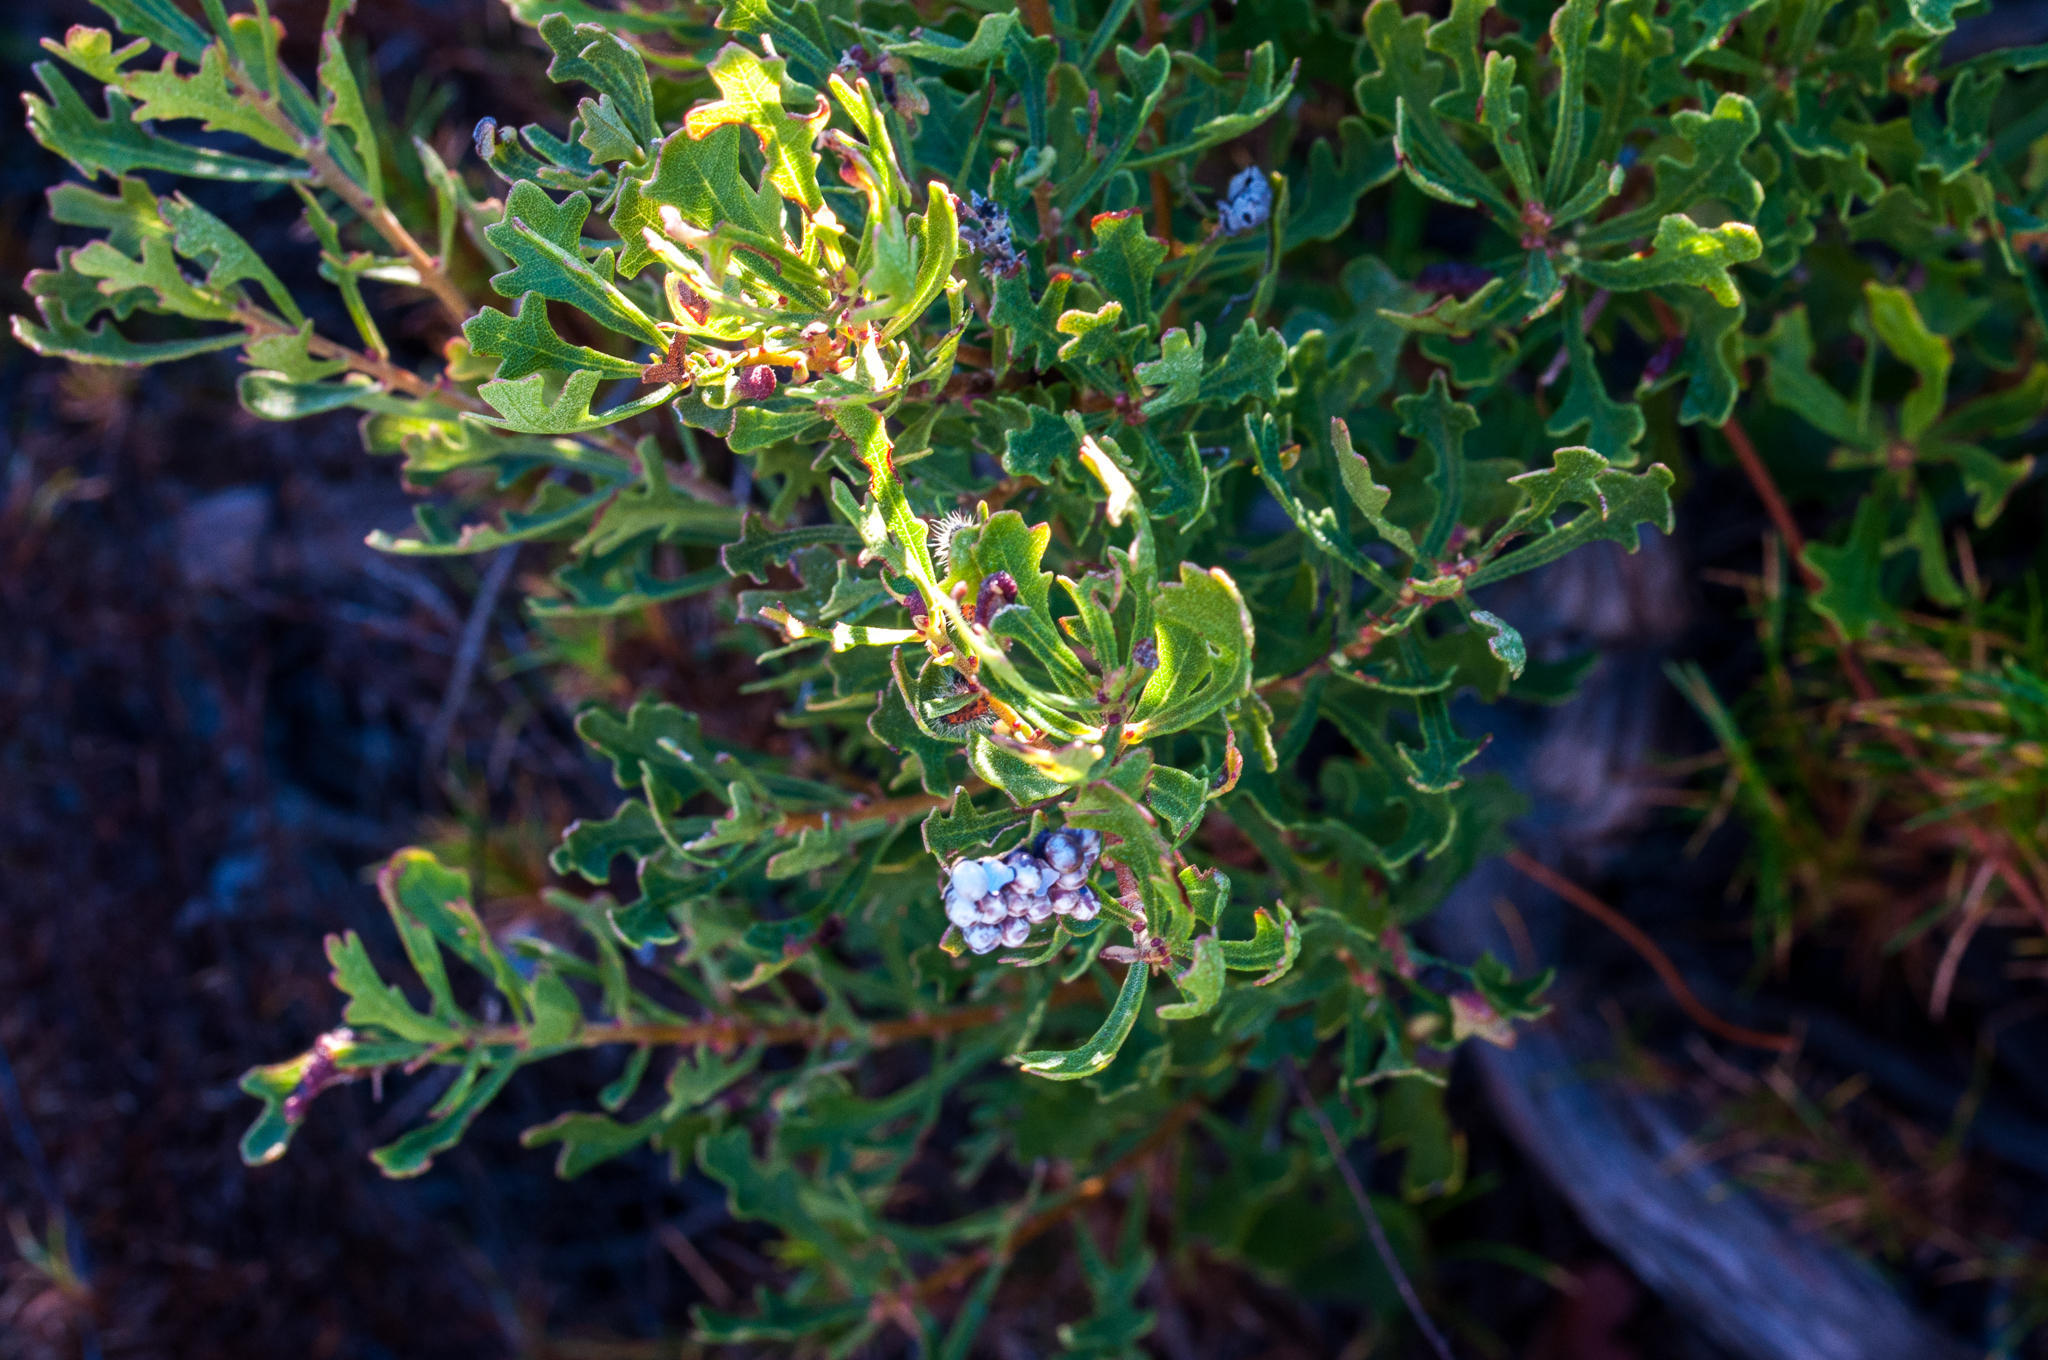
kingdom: Plantae
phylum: Tracheophyta
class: Magnoliopsida
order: Fagales
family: Myricaceae
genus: Morella
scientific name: Morella quercifolia
